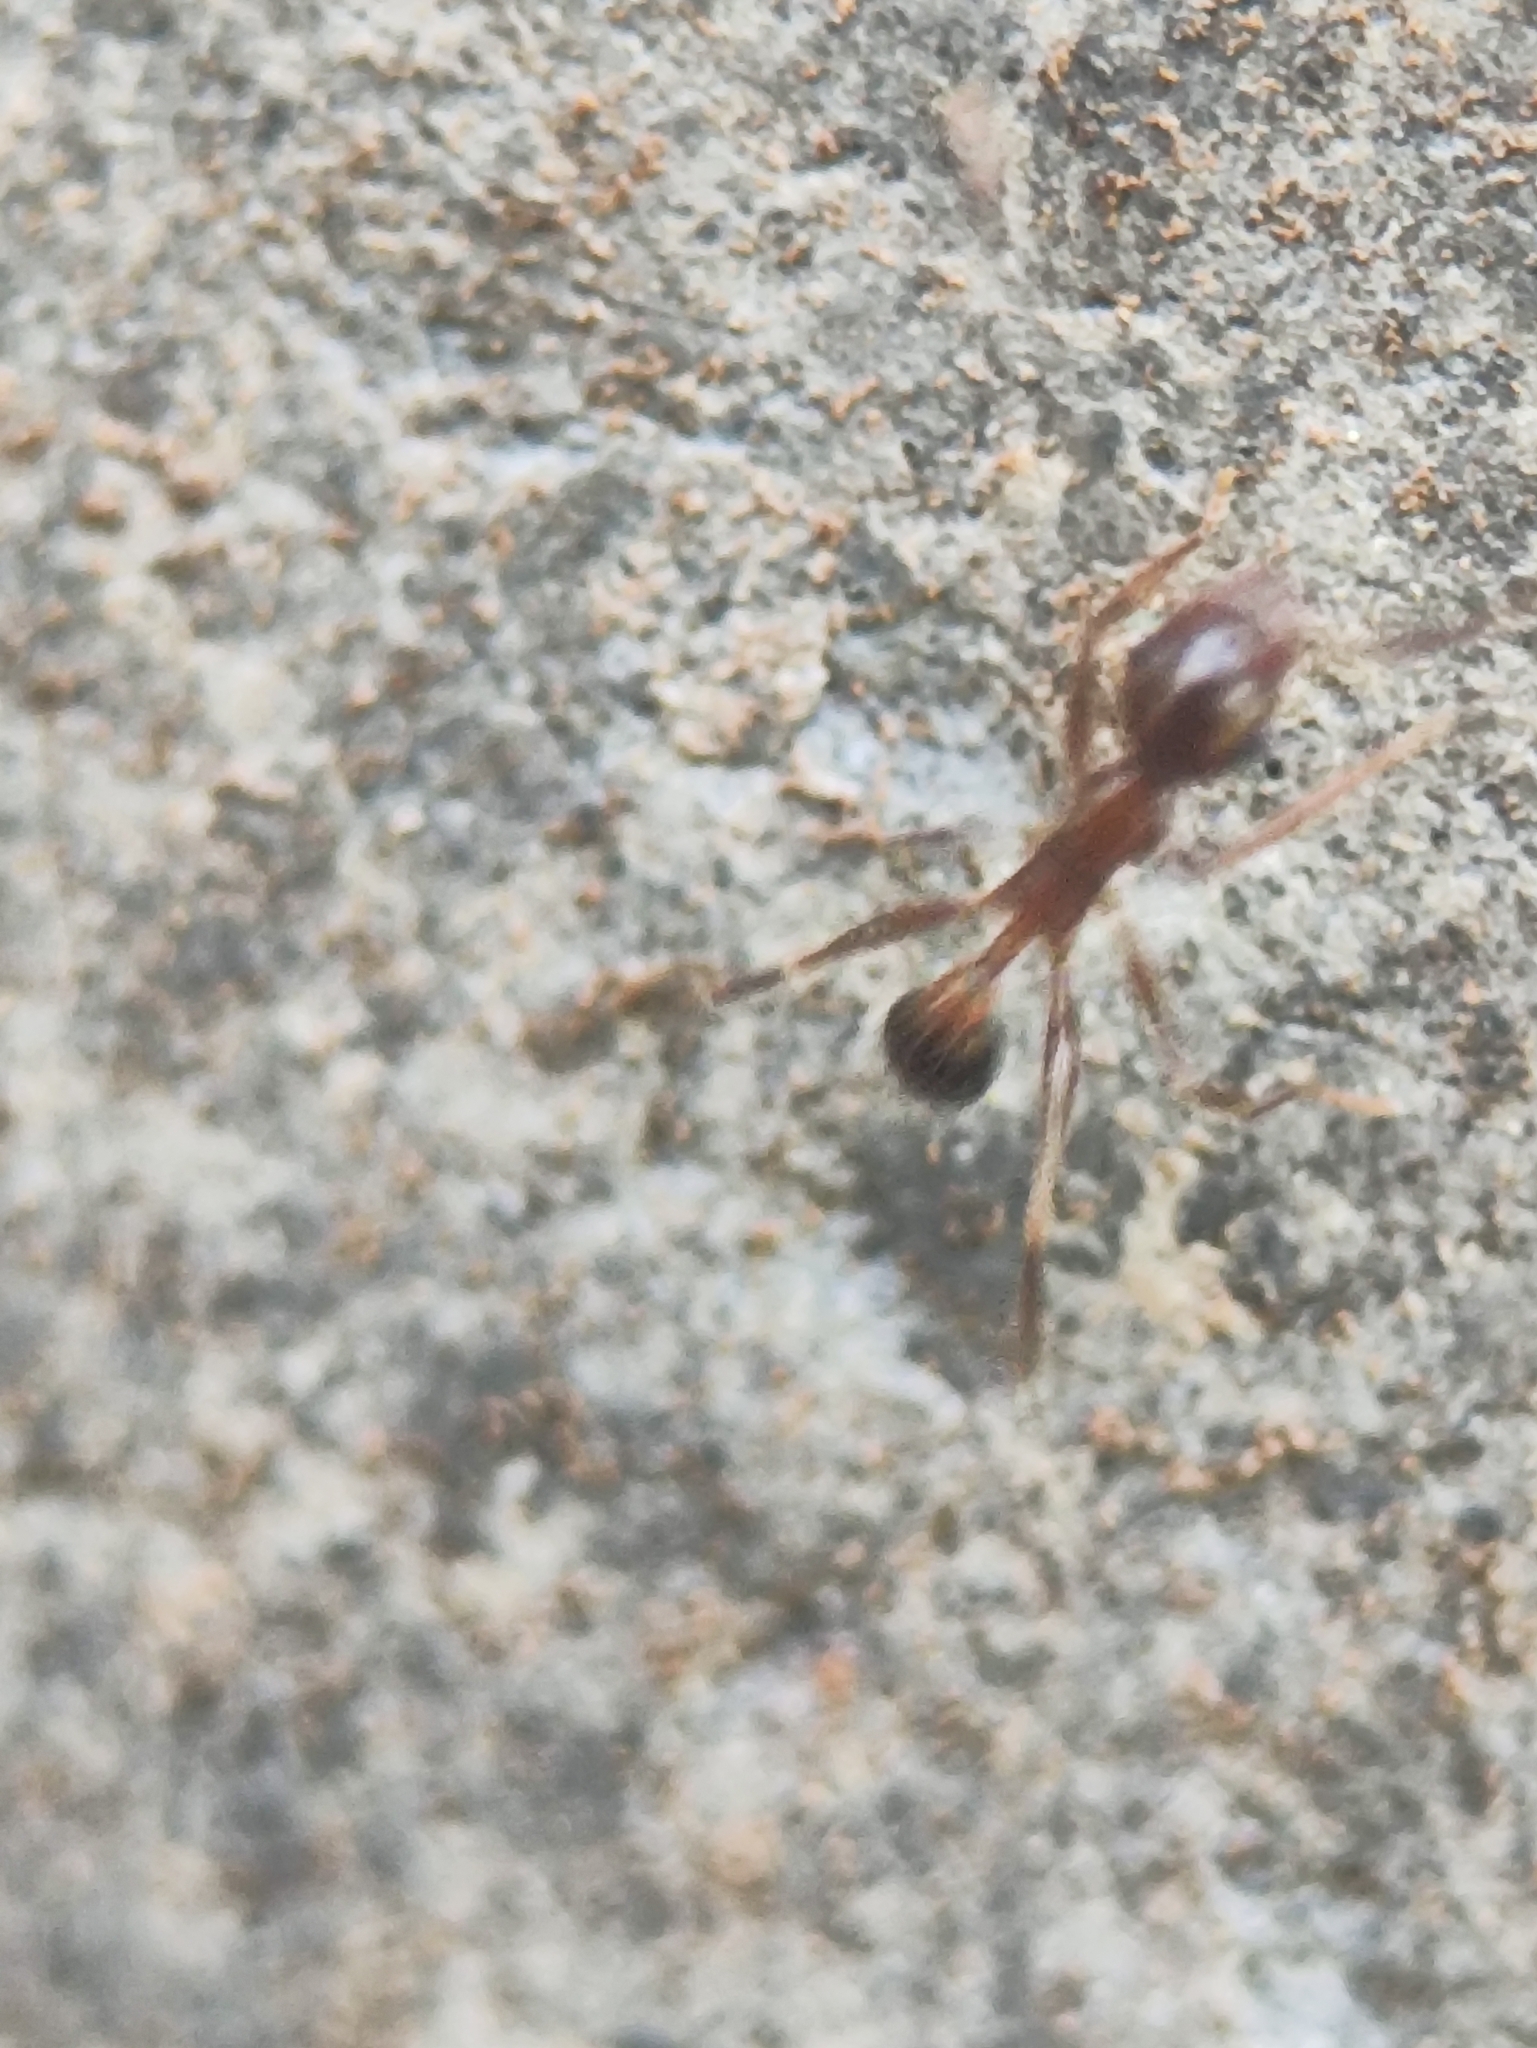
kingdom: Animalia
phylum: Arthropoda
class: Insecta
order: Hymenoptera
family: Formicidae
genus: Pheidole
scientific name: Pheidole noda
